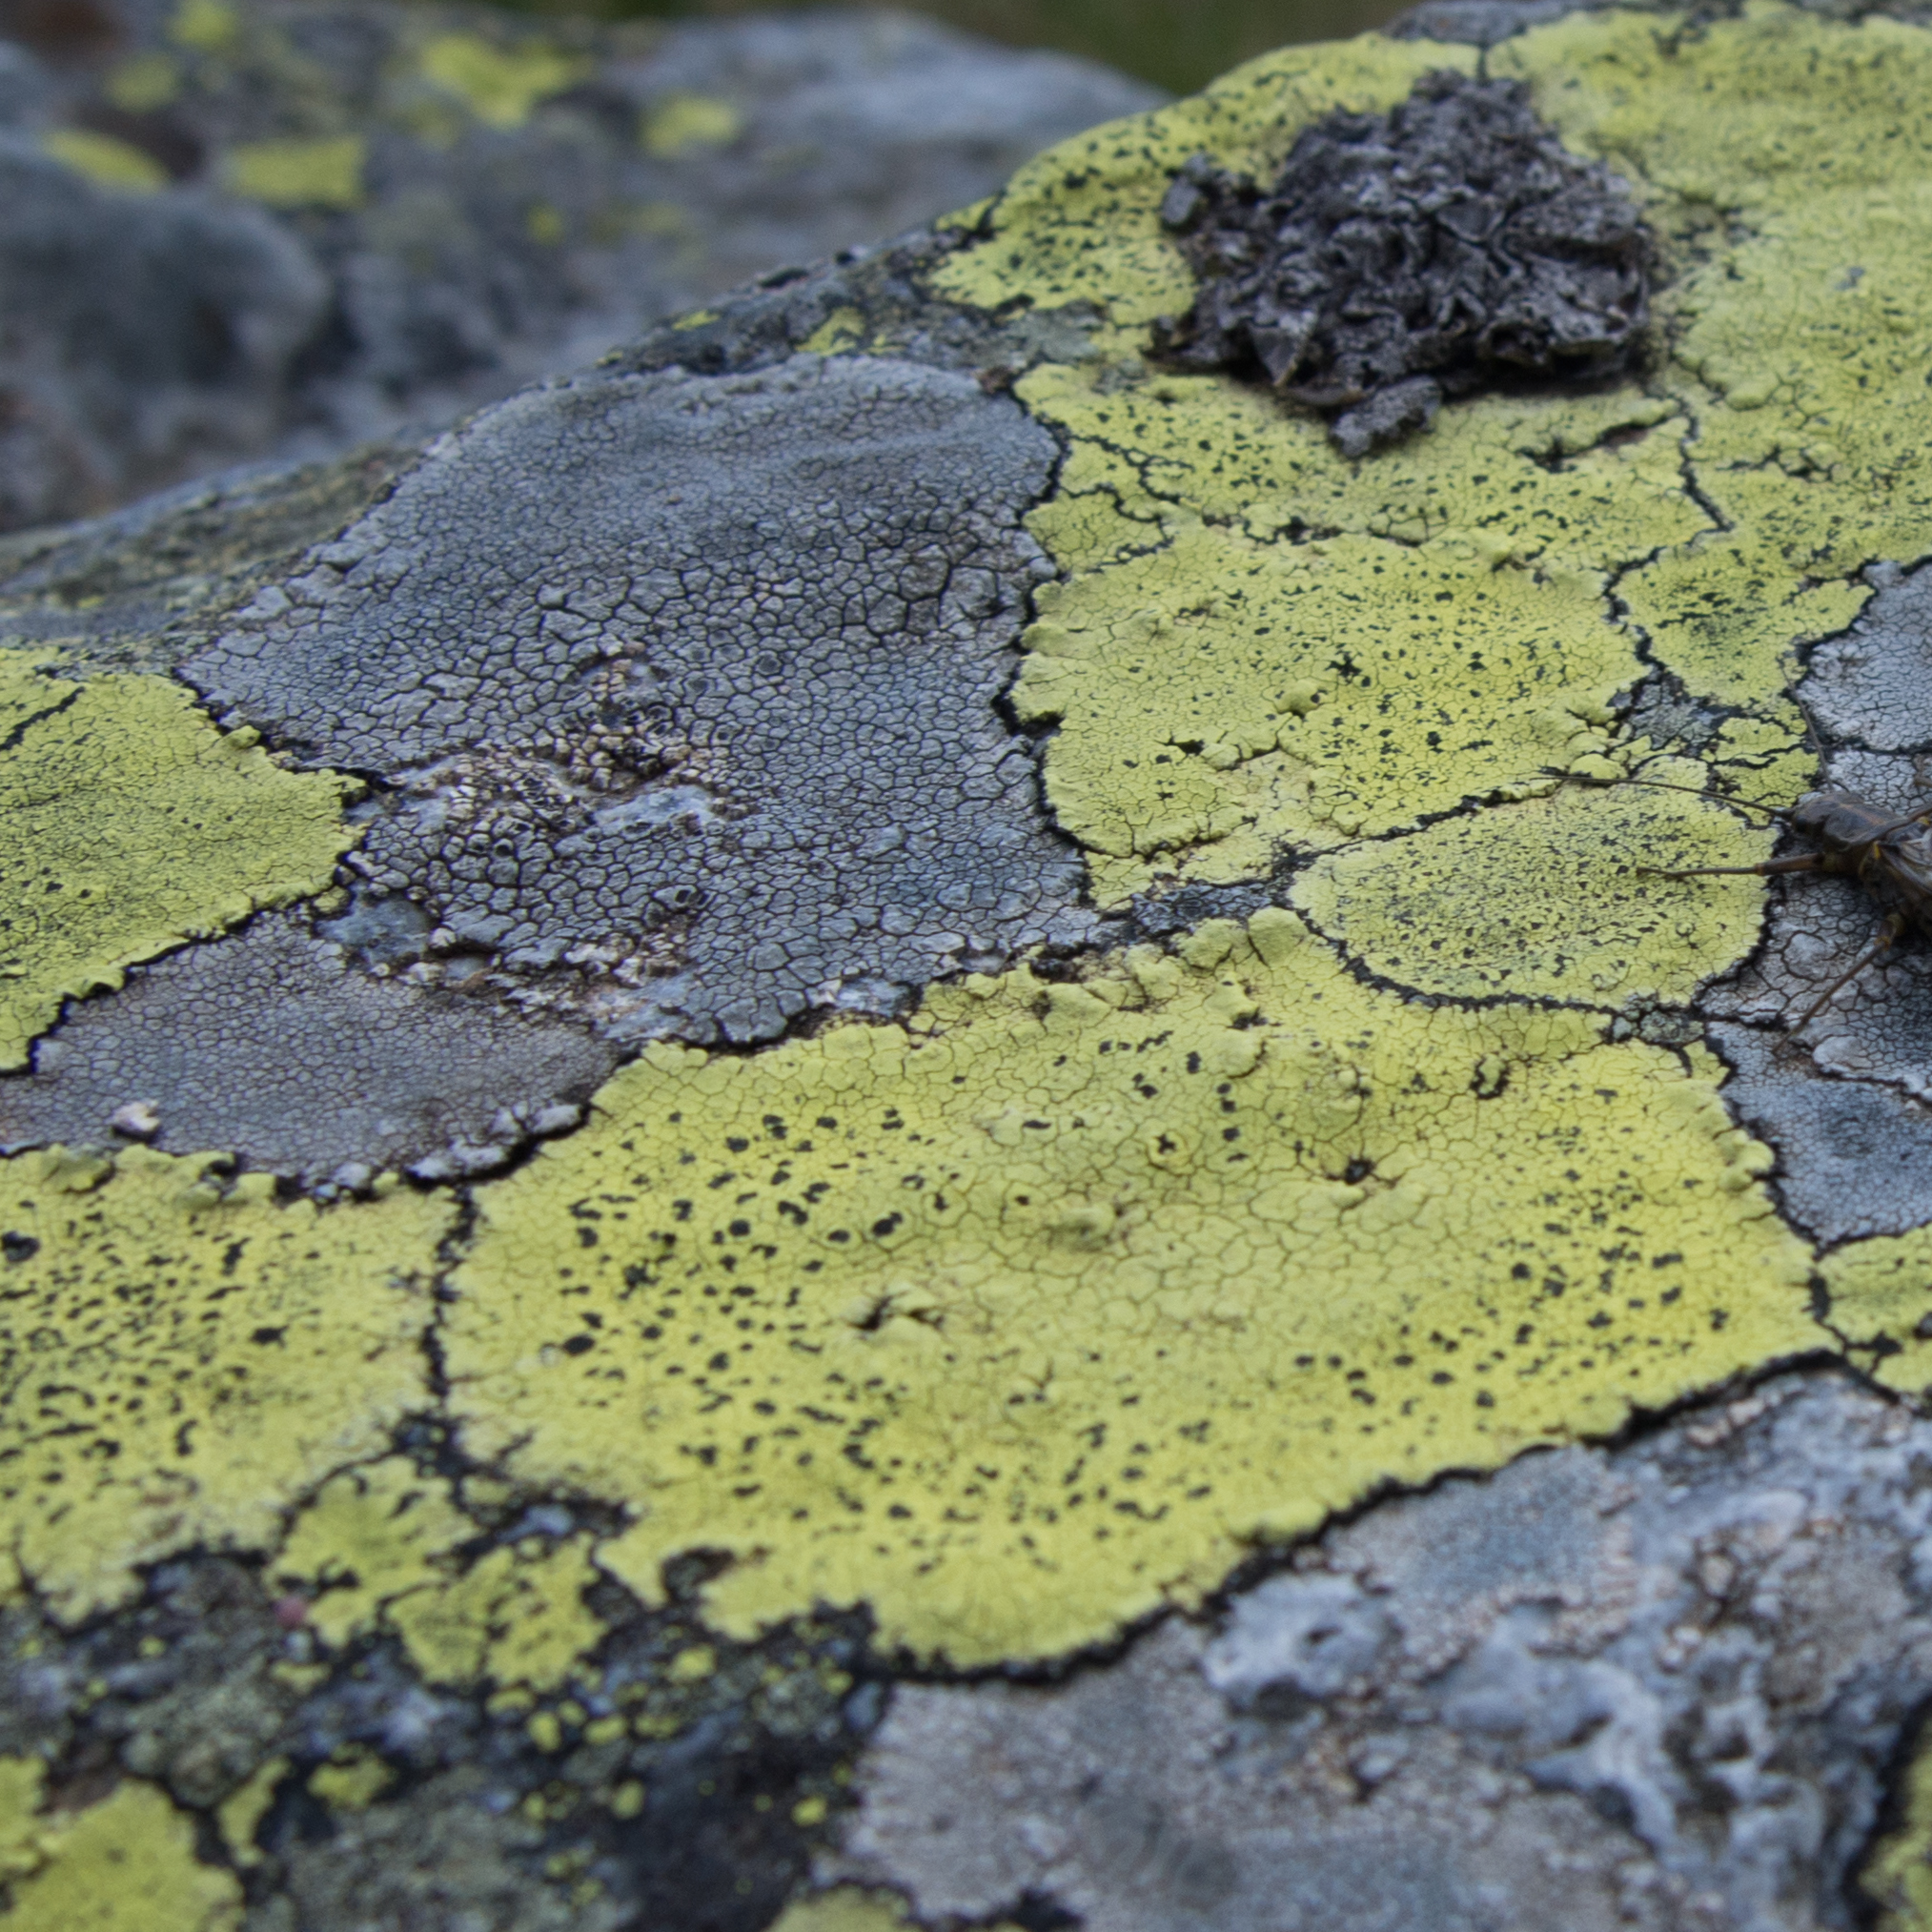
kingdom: Fungi
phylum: Ascomycota
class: Lecanoromycetes
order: Rhizocarpales
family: Rhizocarpaceae
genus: Rhizocarpon
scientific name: Rhizocarpon geographicum
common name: Yellow map lichen
